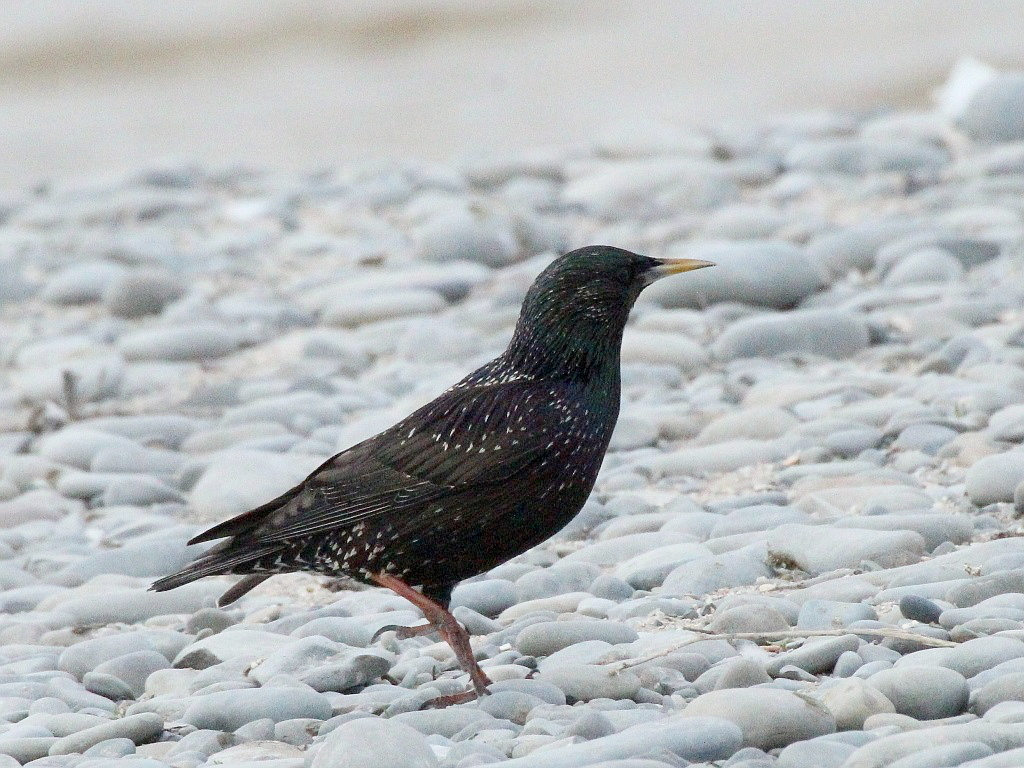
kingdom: Animalia
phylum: Chordata
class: Aves
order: Passeriformes
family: Sturnidae
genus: Sturnus
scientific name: Sturnus vulgaris
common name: Common starling
